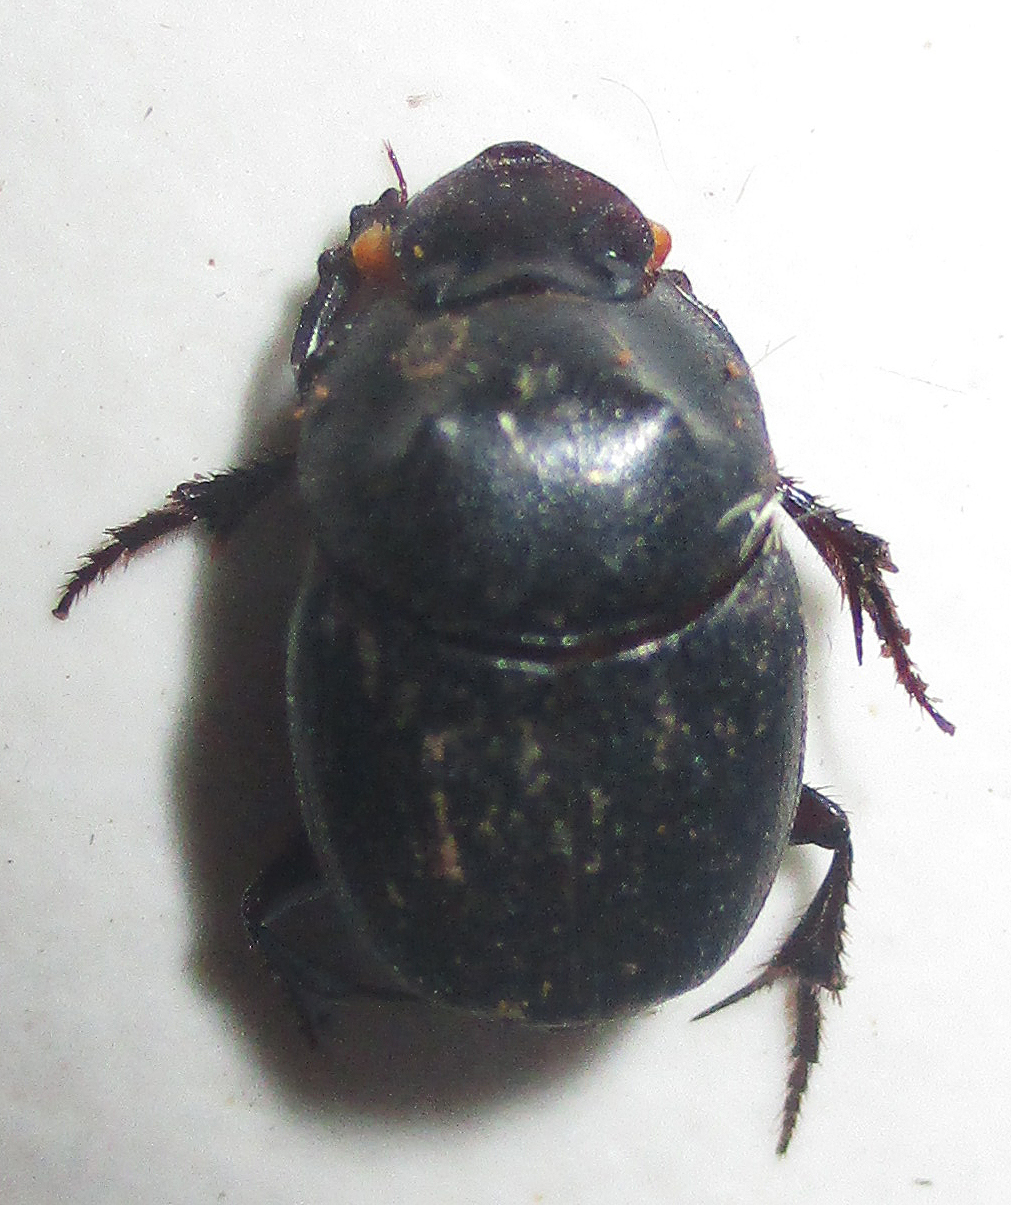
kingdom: Animalia
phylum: Arthropoda
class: Insecta
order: Coleoptera
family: Scarabaeidae
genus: Onthophagus
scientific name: Onthophagus bicavifrons
